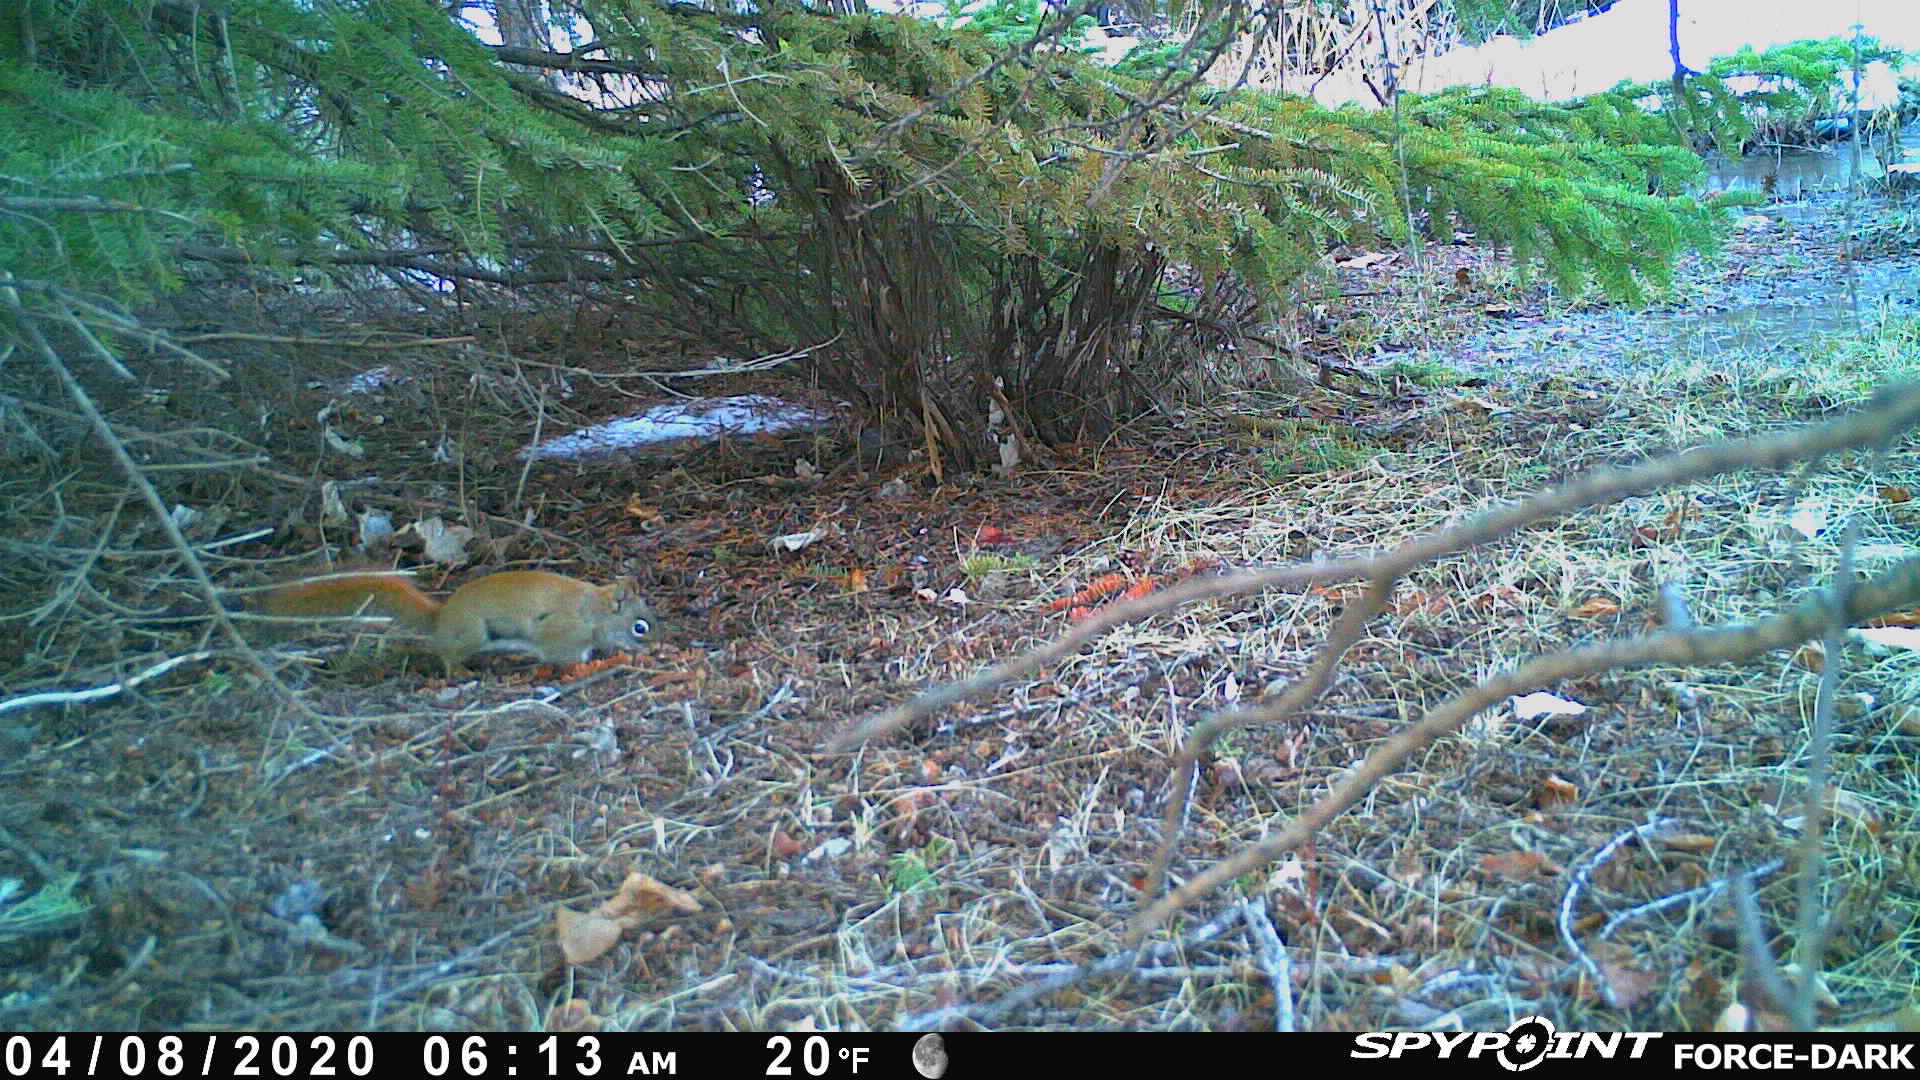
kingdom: Animalia
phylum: Chordata
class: Mammalia
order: Rodentia
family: Sciuridae
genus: Tamiasciurus
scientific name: Tamiasciurus hudsonicus
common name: Red squirrel
